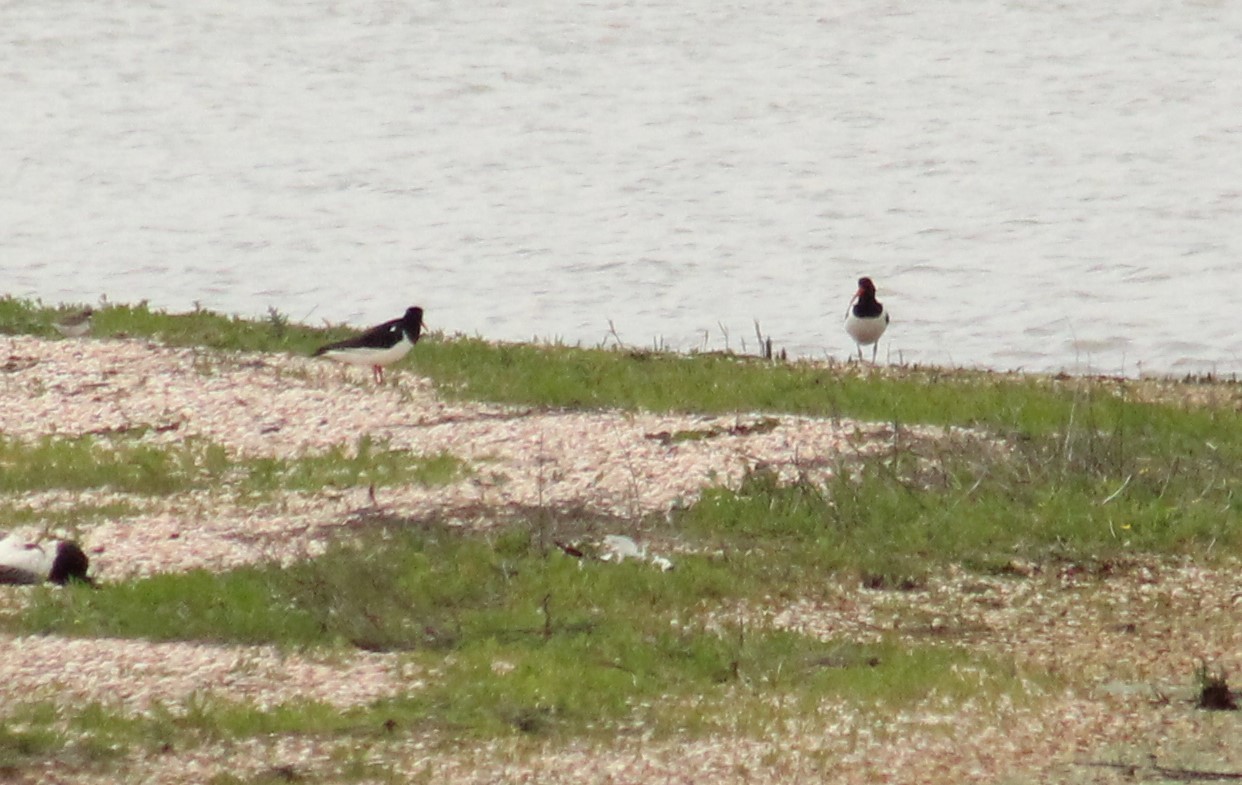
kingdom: Animalia
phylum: Chordata
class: Aves
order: Charadriiformes
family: Haematopodidae
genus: Haematopus
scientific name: Haematopus ostralegus
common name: Eurasian oystercatcher
